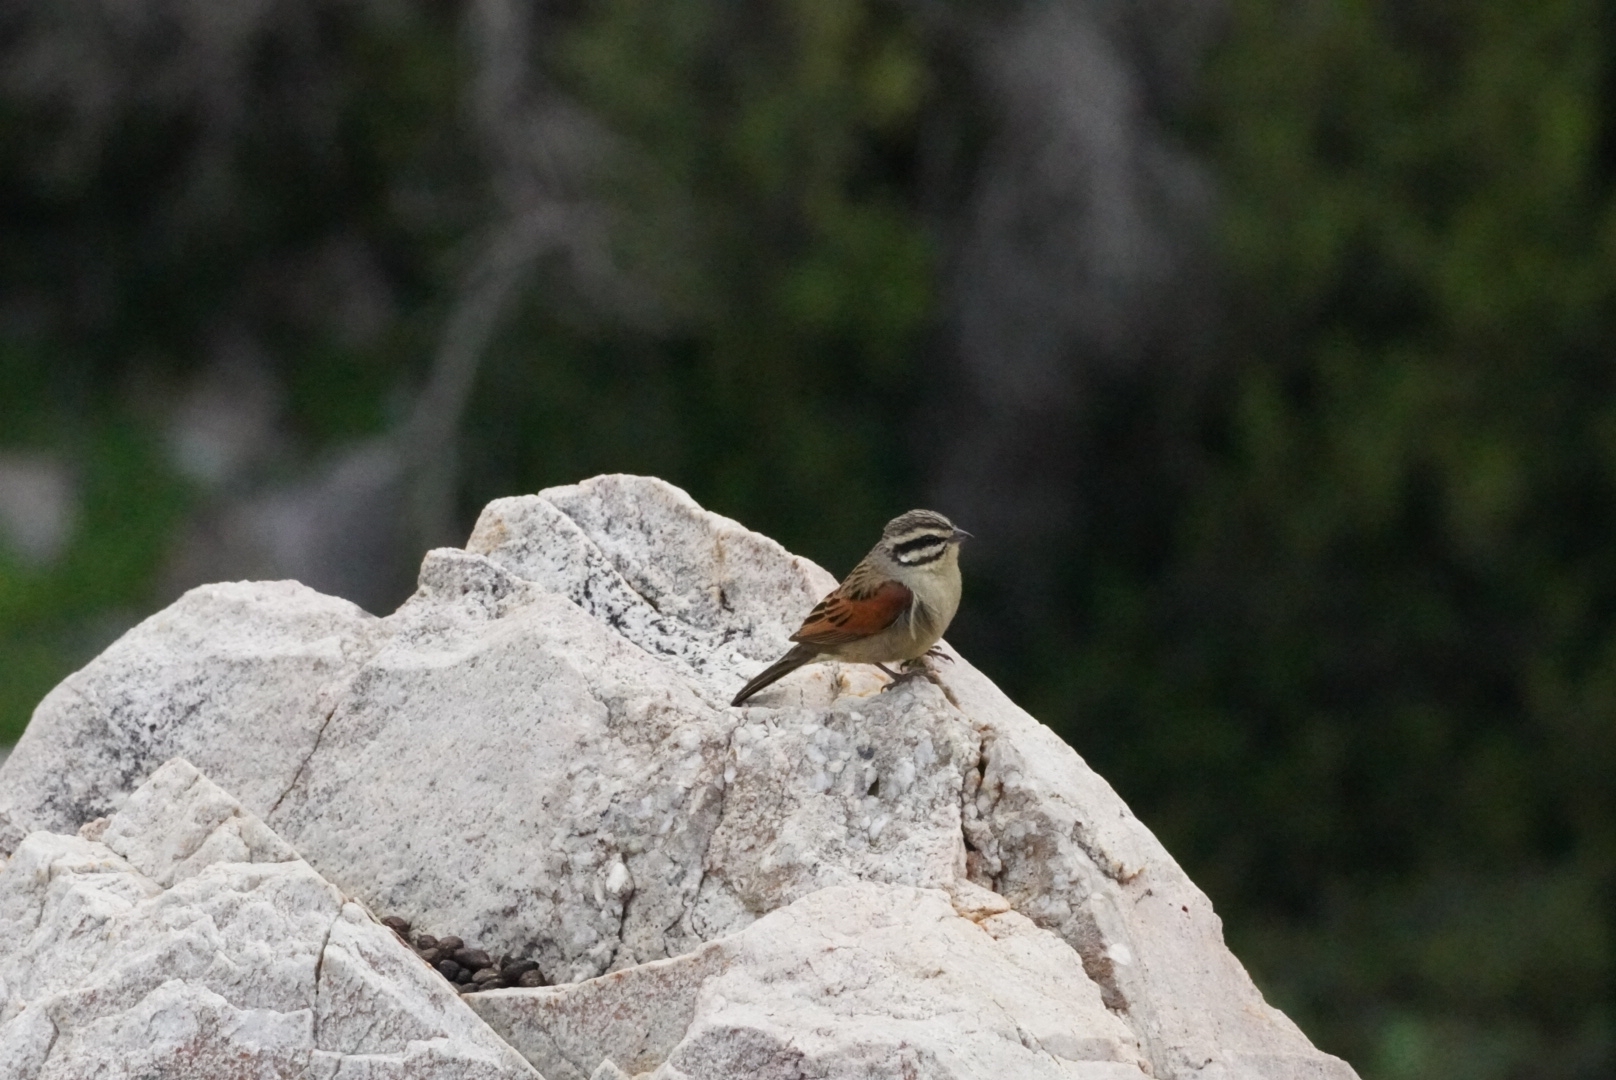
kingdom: Animalia
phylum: Chordata
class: Aves
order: Passeriformes
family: Emberizidae
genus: Emberiza
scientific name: Emberiza capensis
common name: Cape bunting
